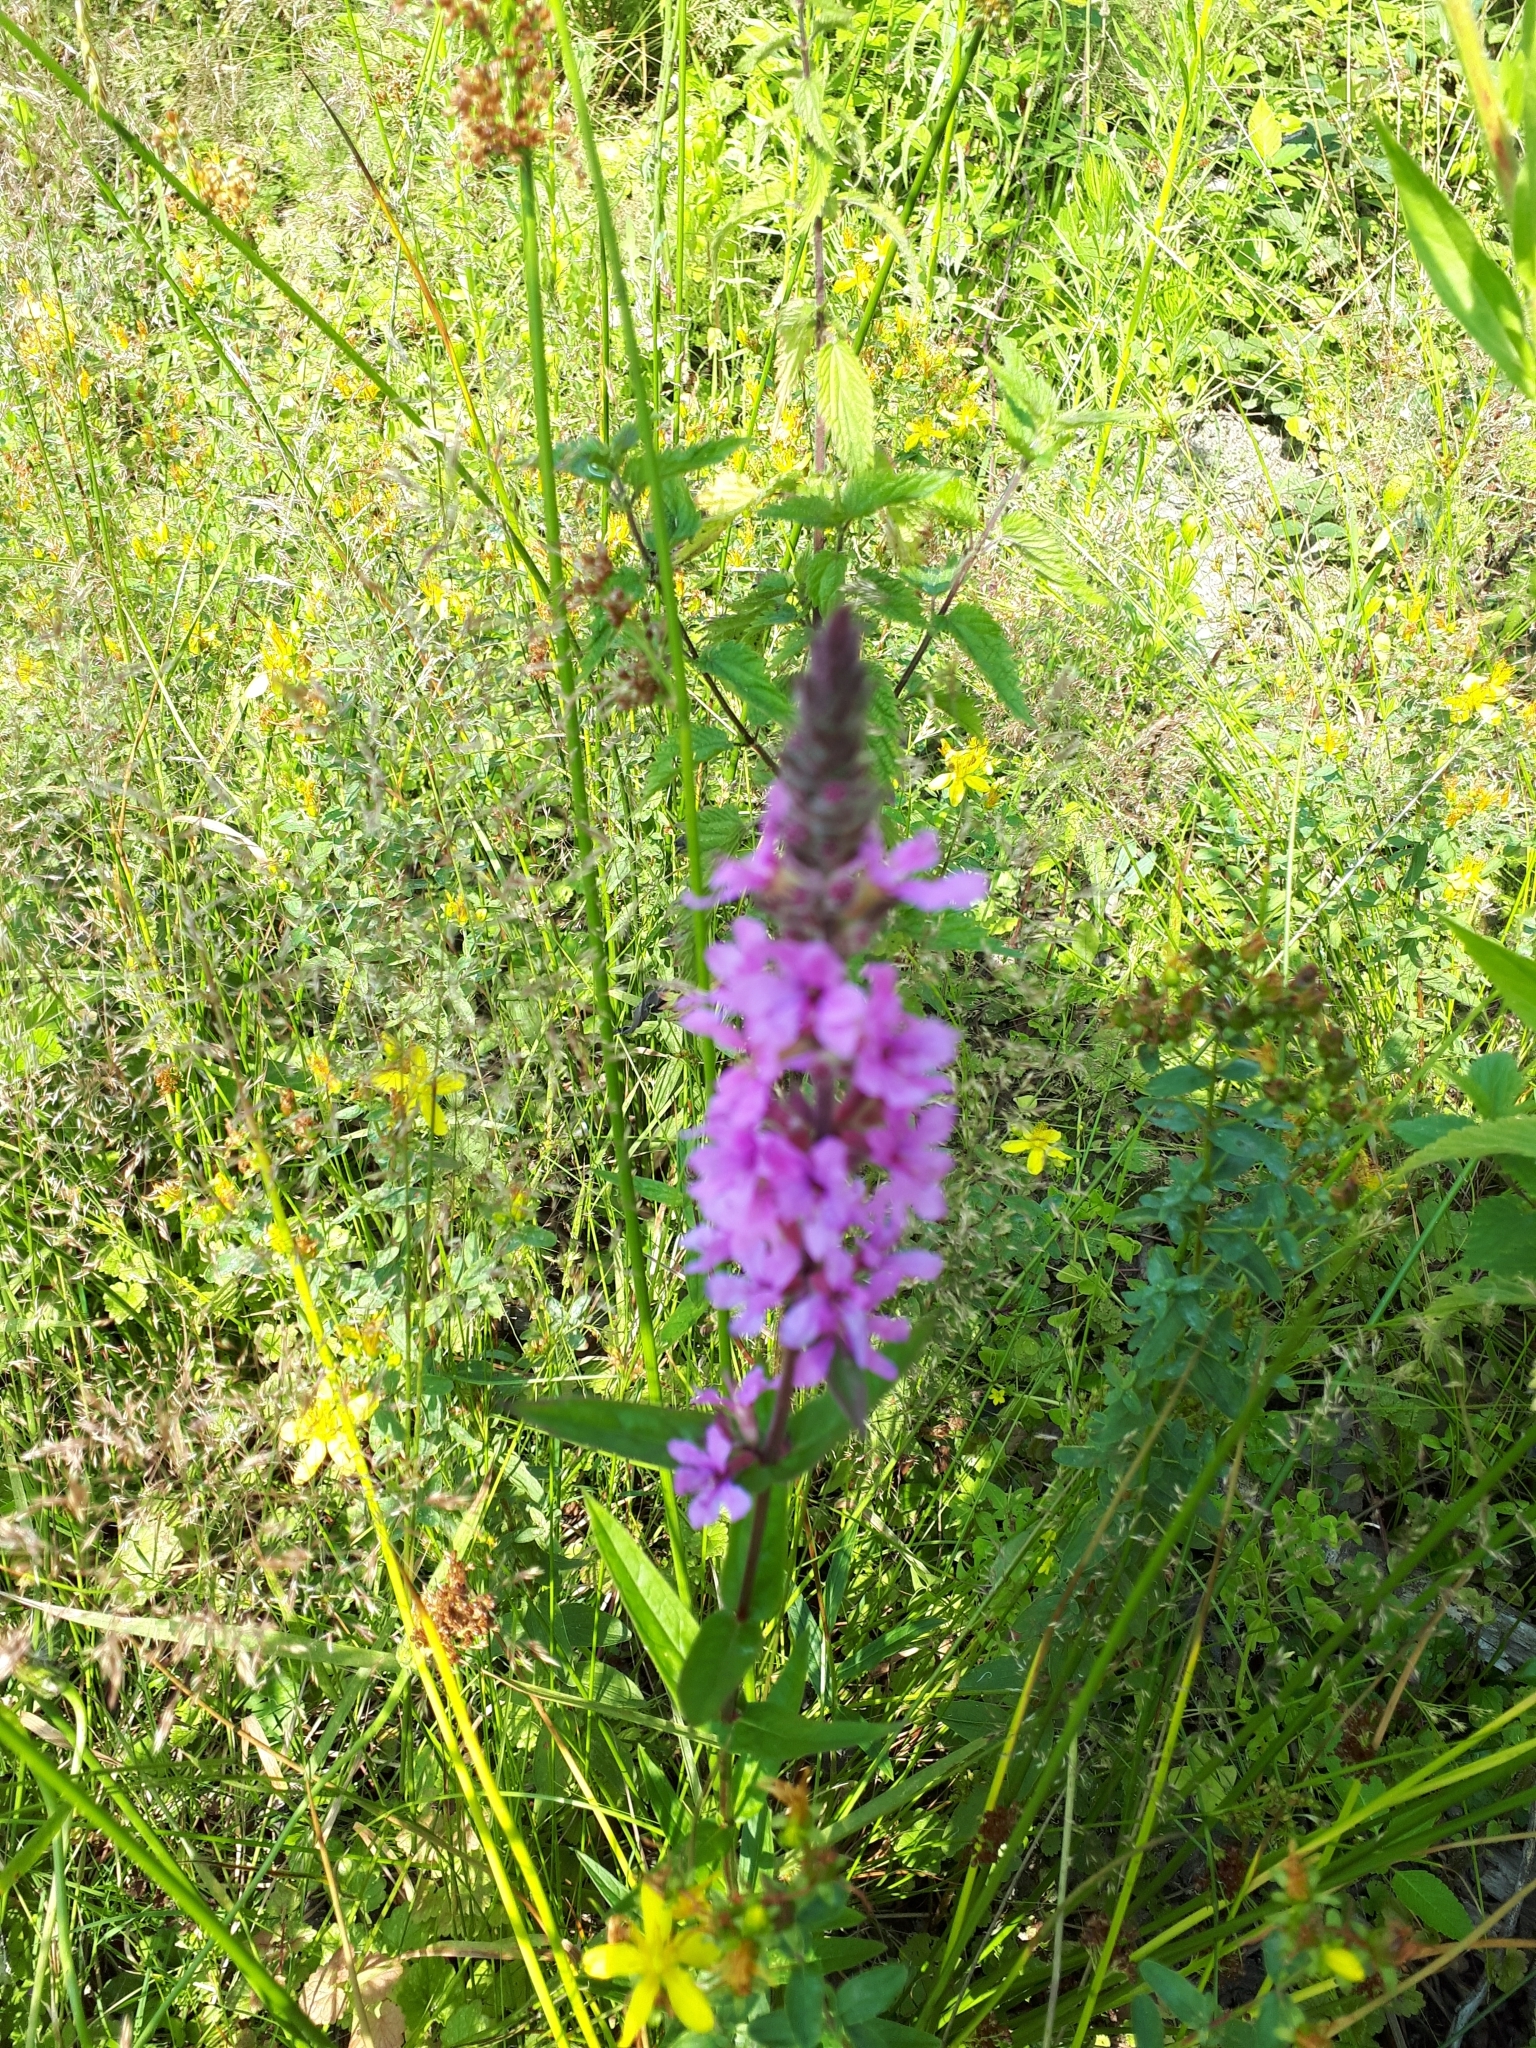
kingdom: Plantae
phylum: Tracheophyta
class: Magnoliopsida
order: Myrtales
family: Lythraceae
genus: Lythrum
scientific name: Lythrum salicaria
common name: Purple loosestrife
